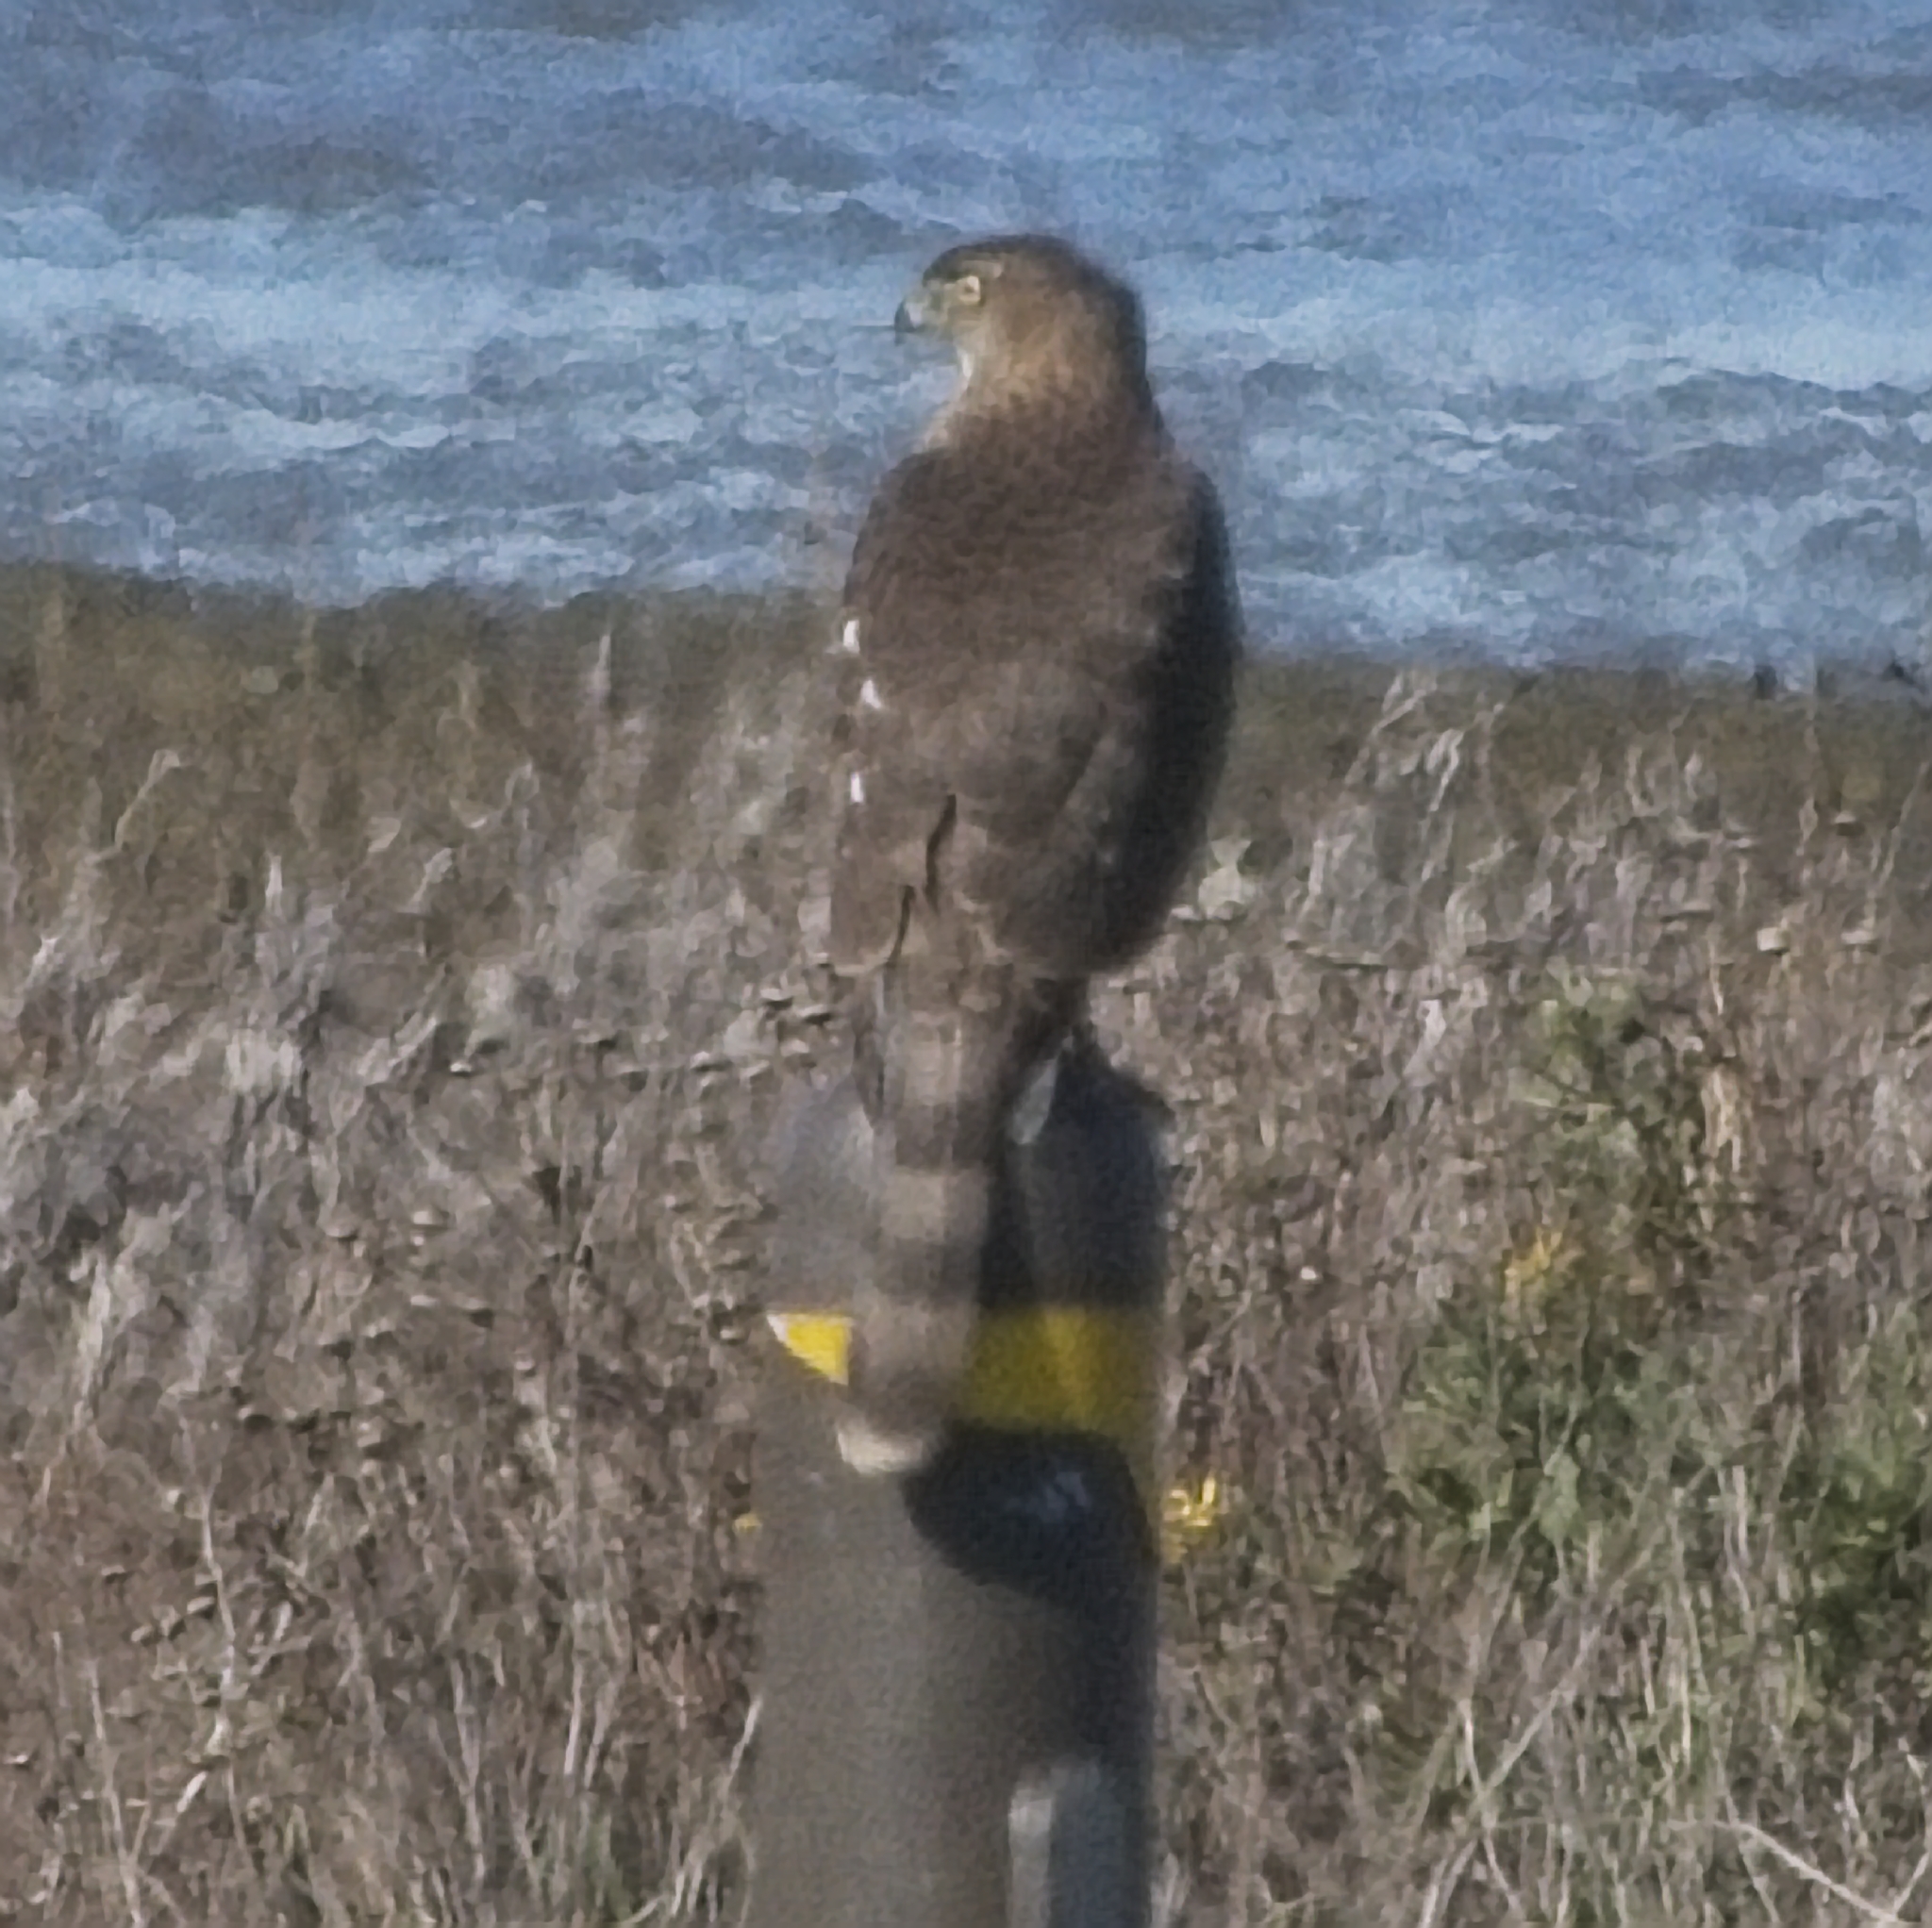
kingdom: Animalia
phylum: Chordata
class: Aves
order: Accipitriformes
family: Accipitridae
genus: Accipiter
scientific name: Accipiter cooperii
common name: Cooper's hawk
